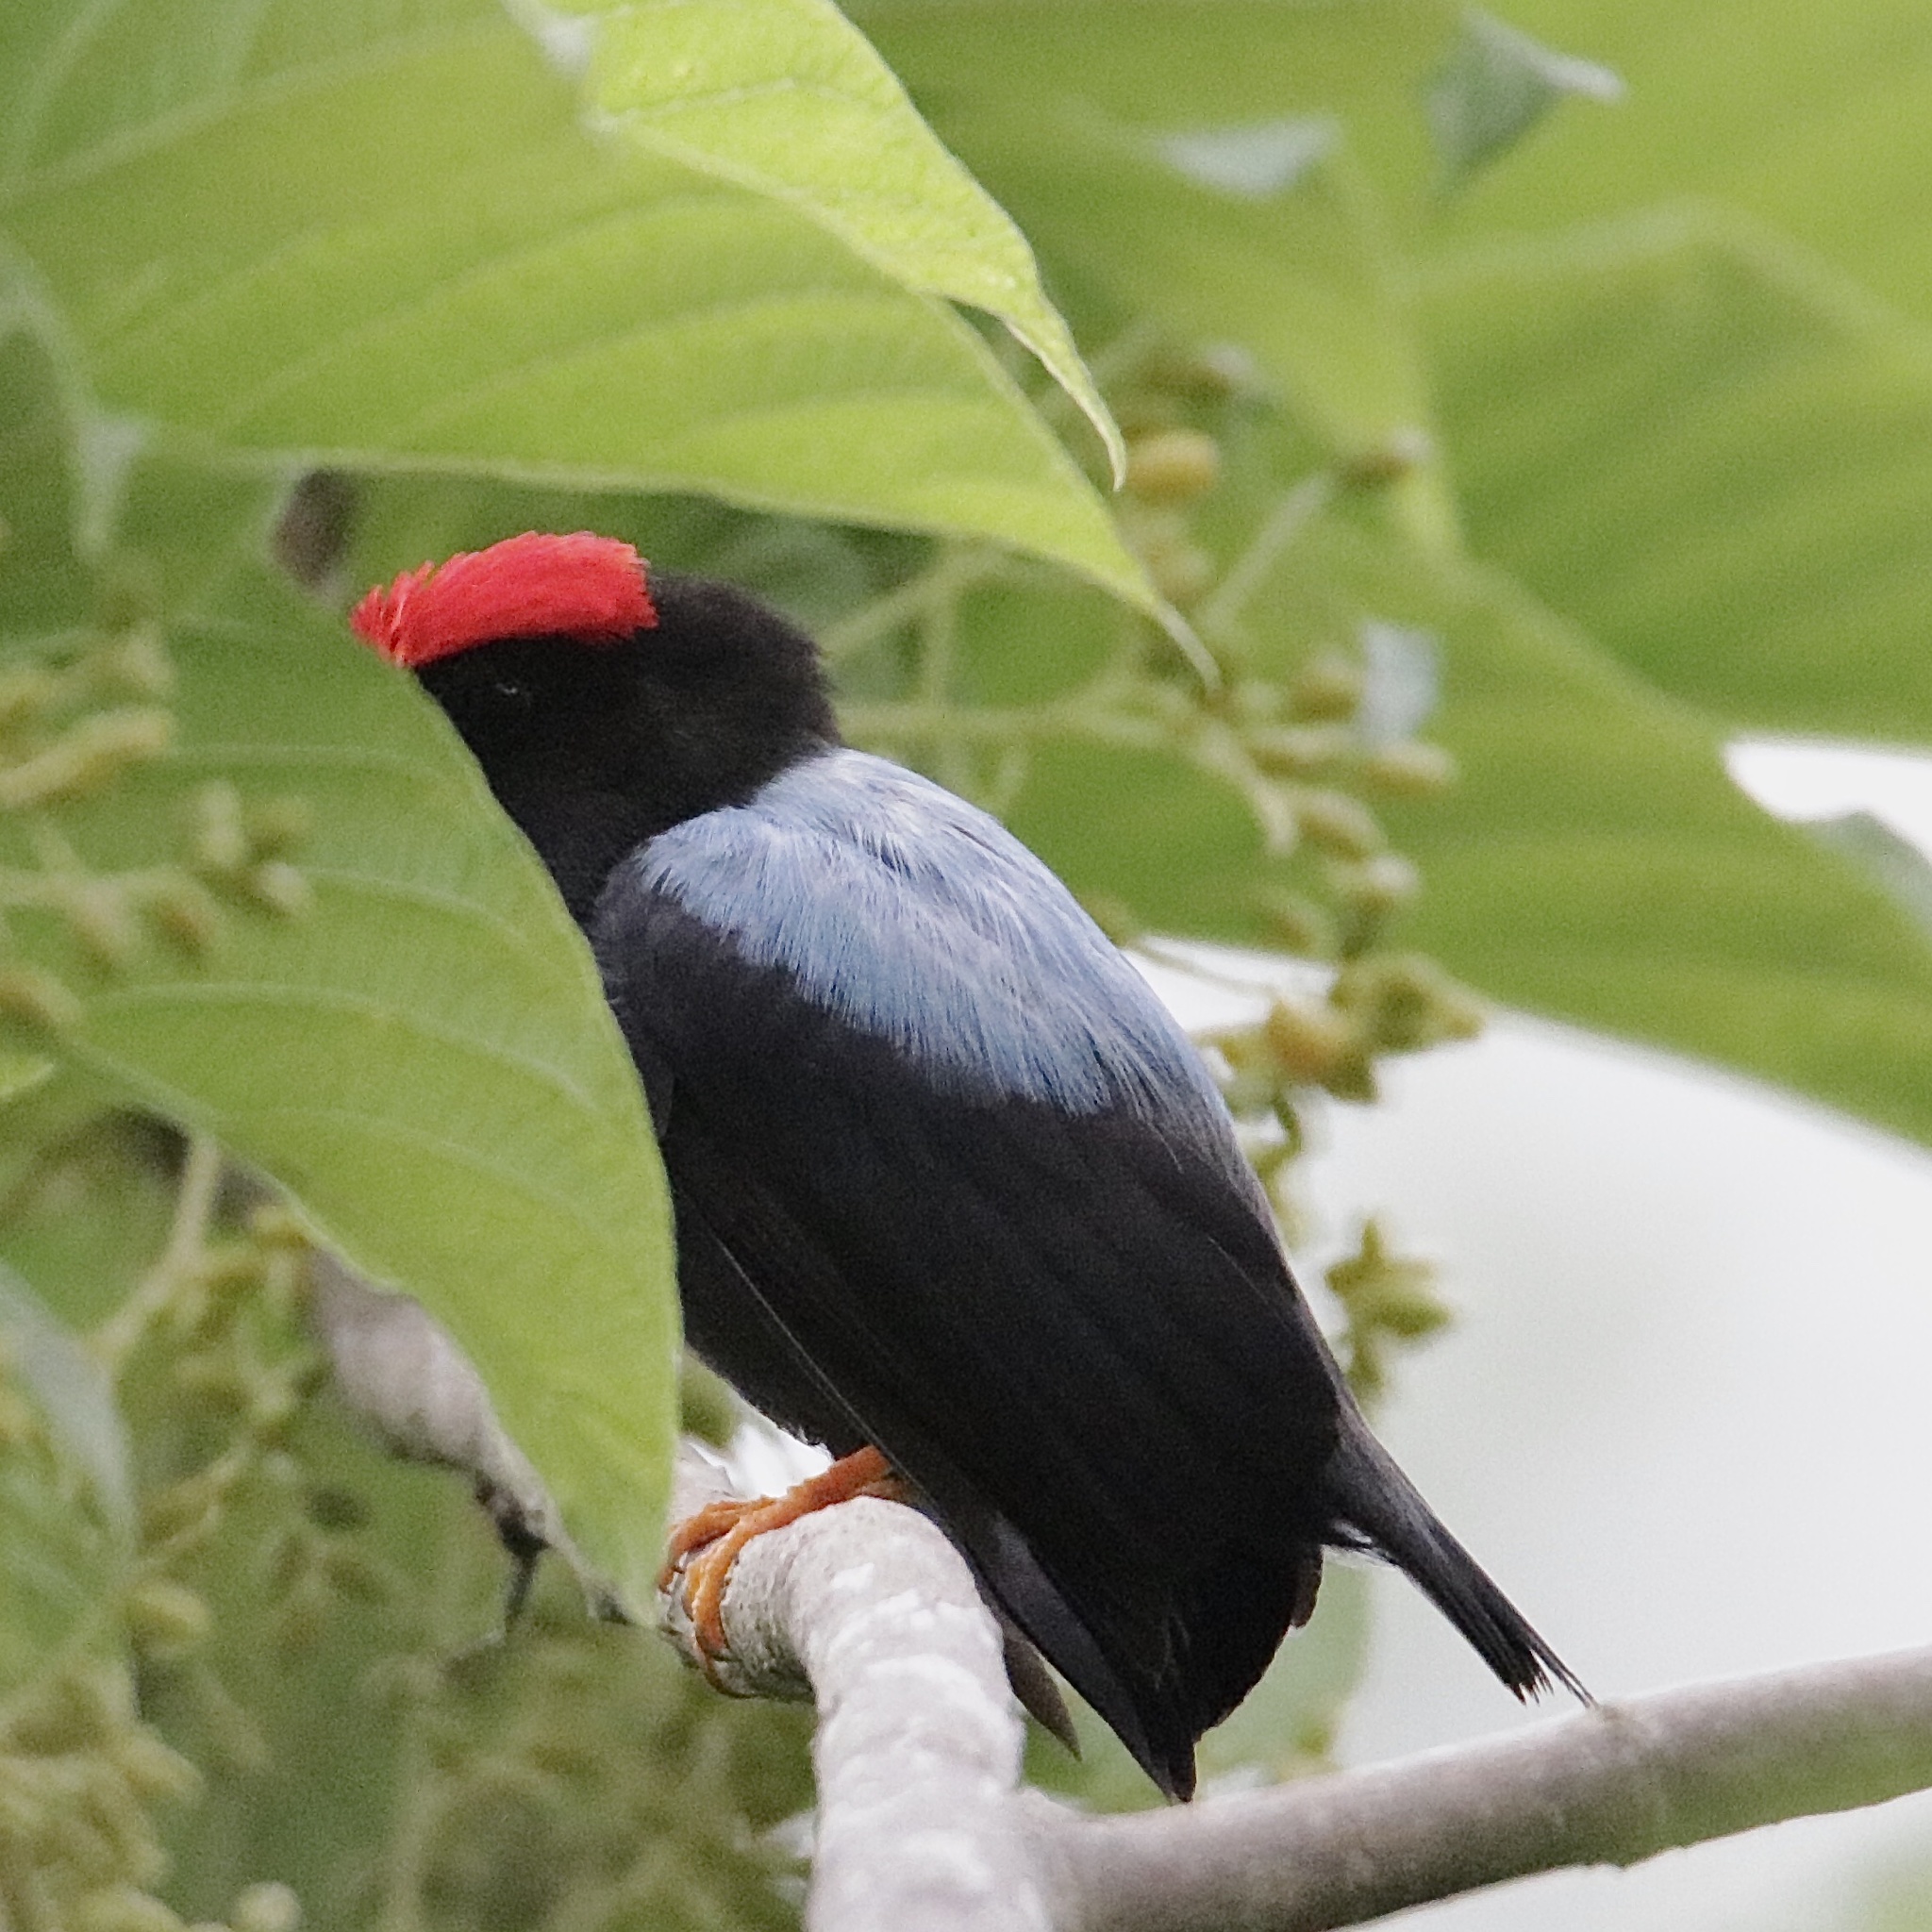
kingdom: Animalia
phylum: Chordata
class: Aves
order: Passeriformes
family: Pipridae
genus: Chiroxiphia
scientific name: Chiroxiphia lanceolata
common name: Lance-tailed manakin
